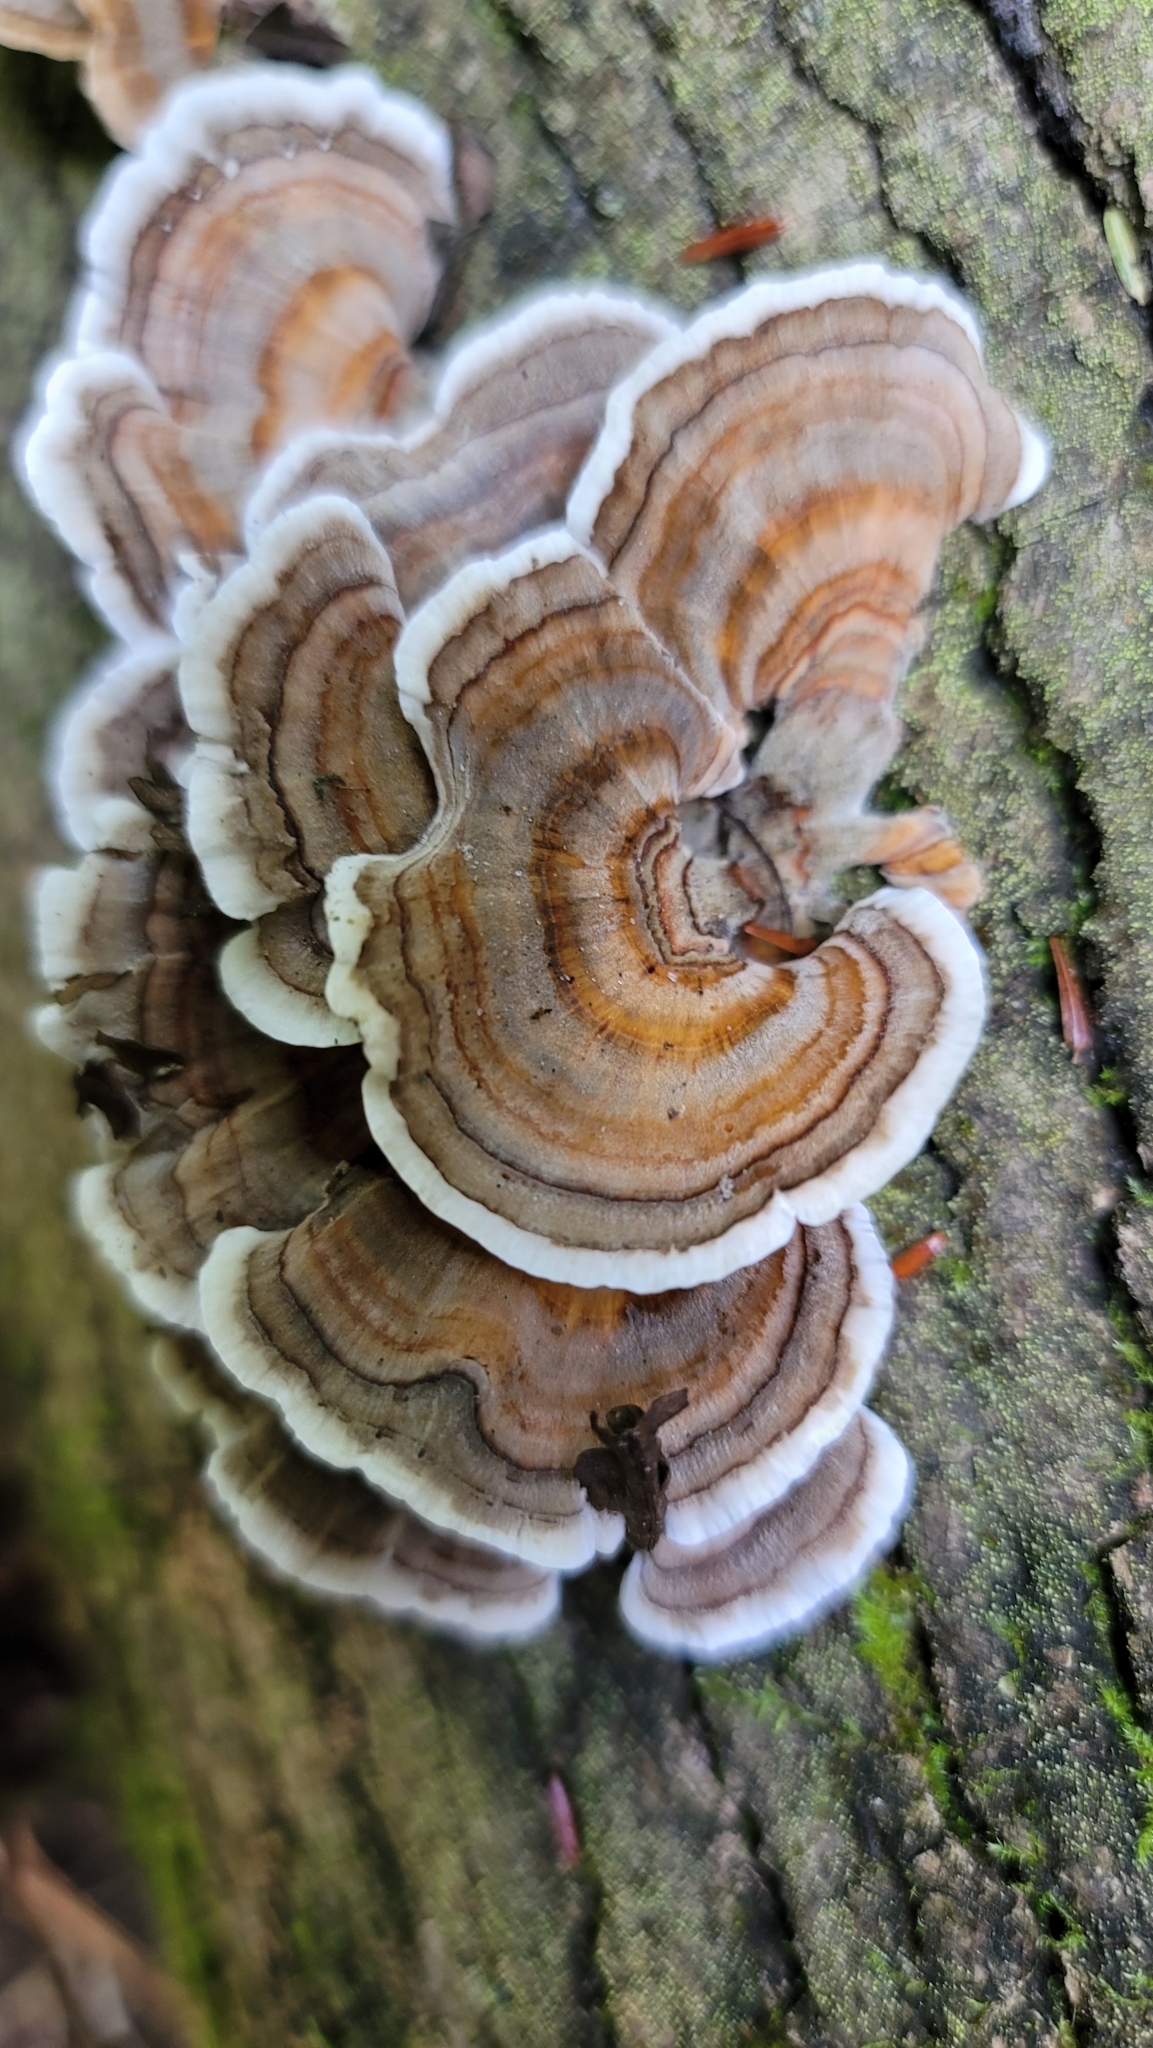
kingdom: Fungi
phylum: Basidiomycota
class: Agaricomycetes
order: Polyporales
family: Polyporaceae
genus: Trametes
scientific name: Trametes versicolor
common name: Turkeytail
